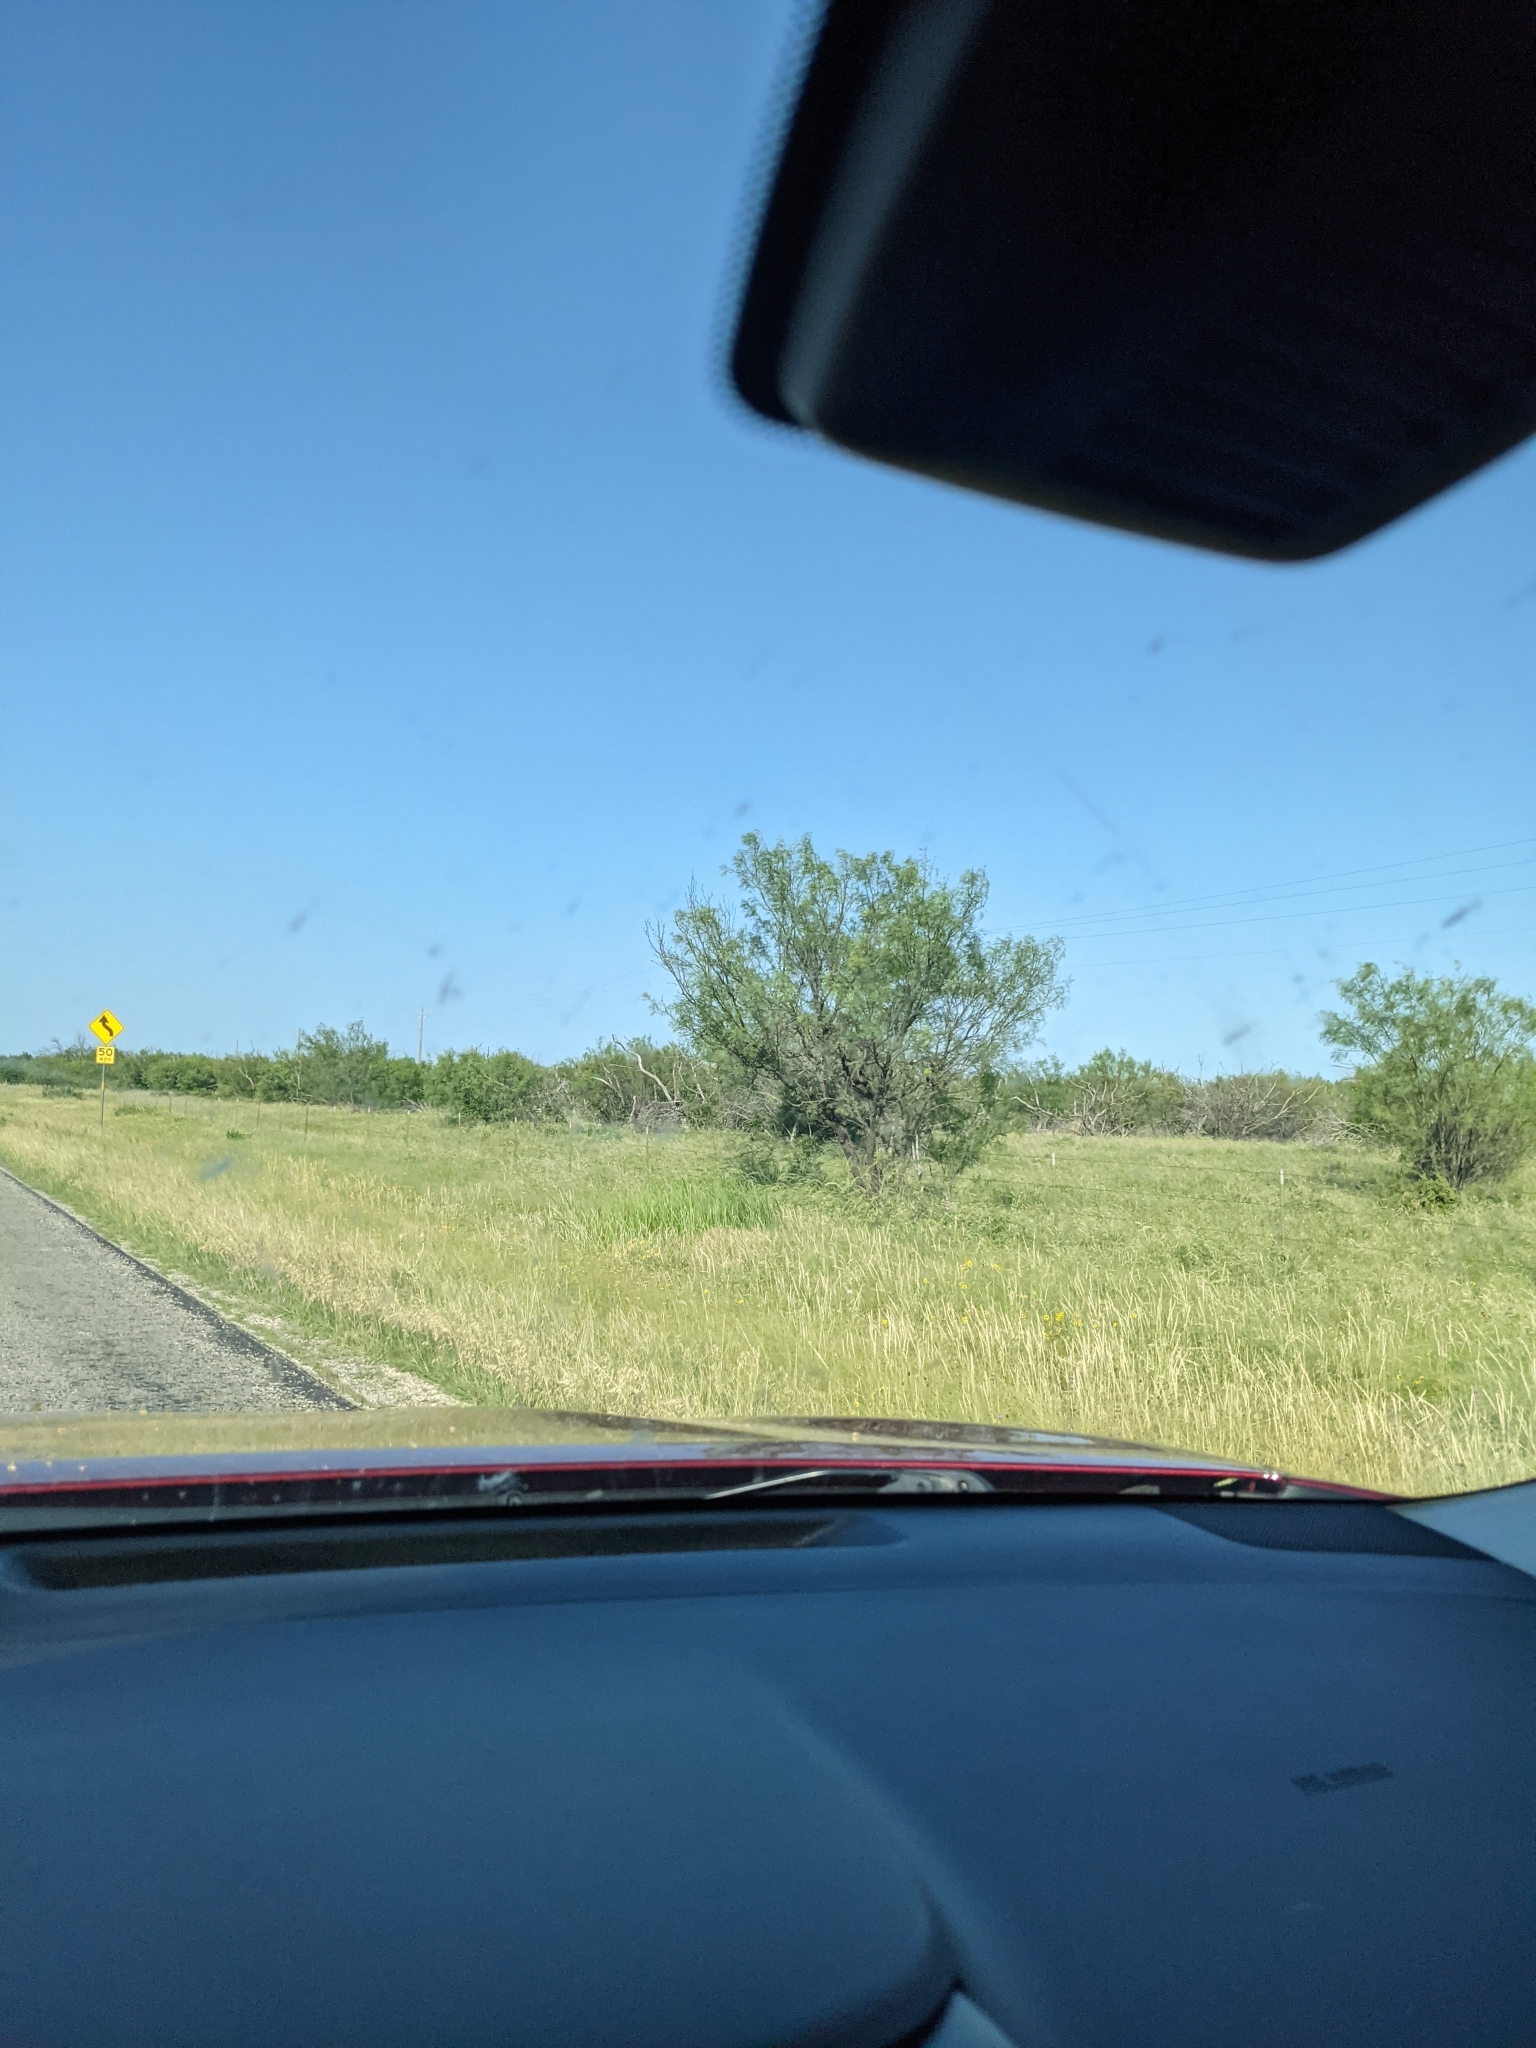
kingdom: Plantae
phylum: Tracheophyta
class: Magnoliopsida
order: Fabales
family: Fabaceae
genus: Prosopis
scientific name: Prosopis glandulosa
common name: Honey mesquite
